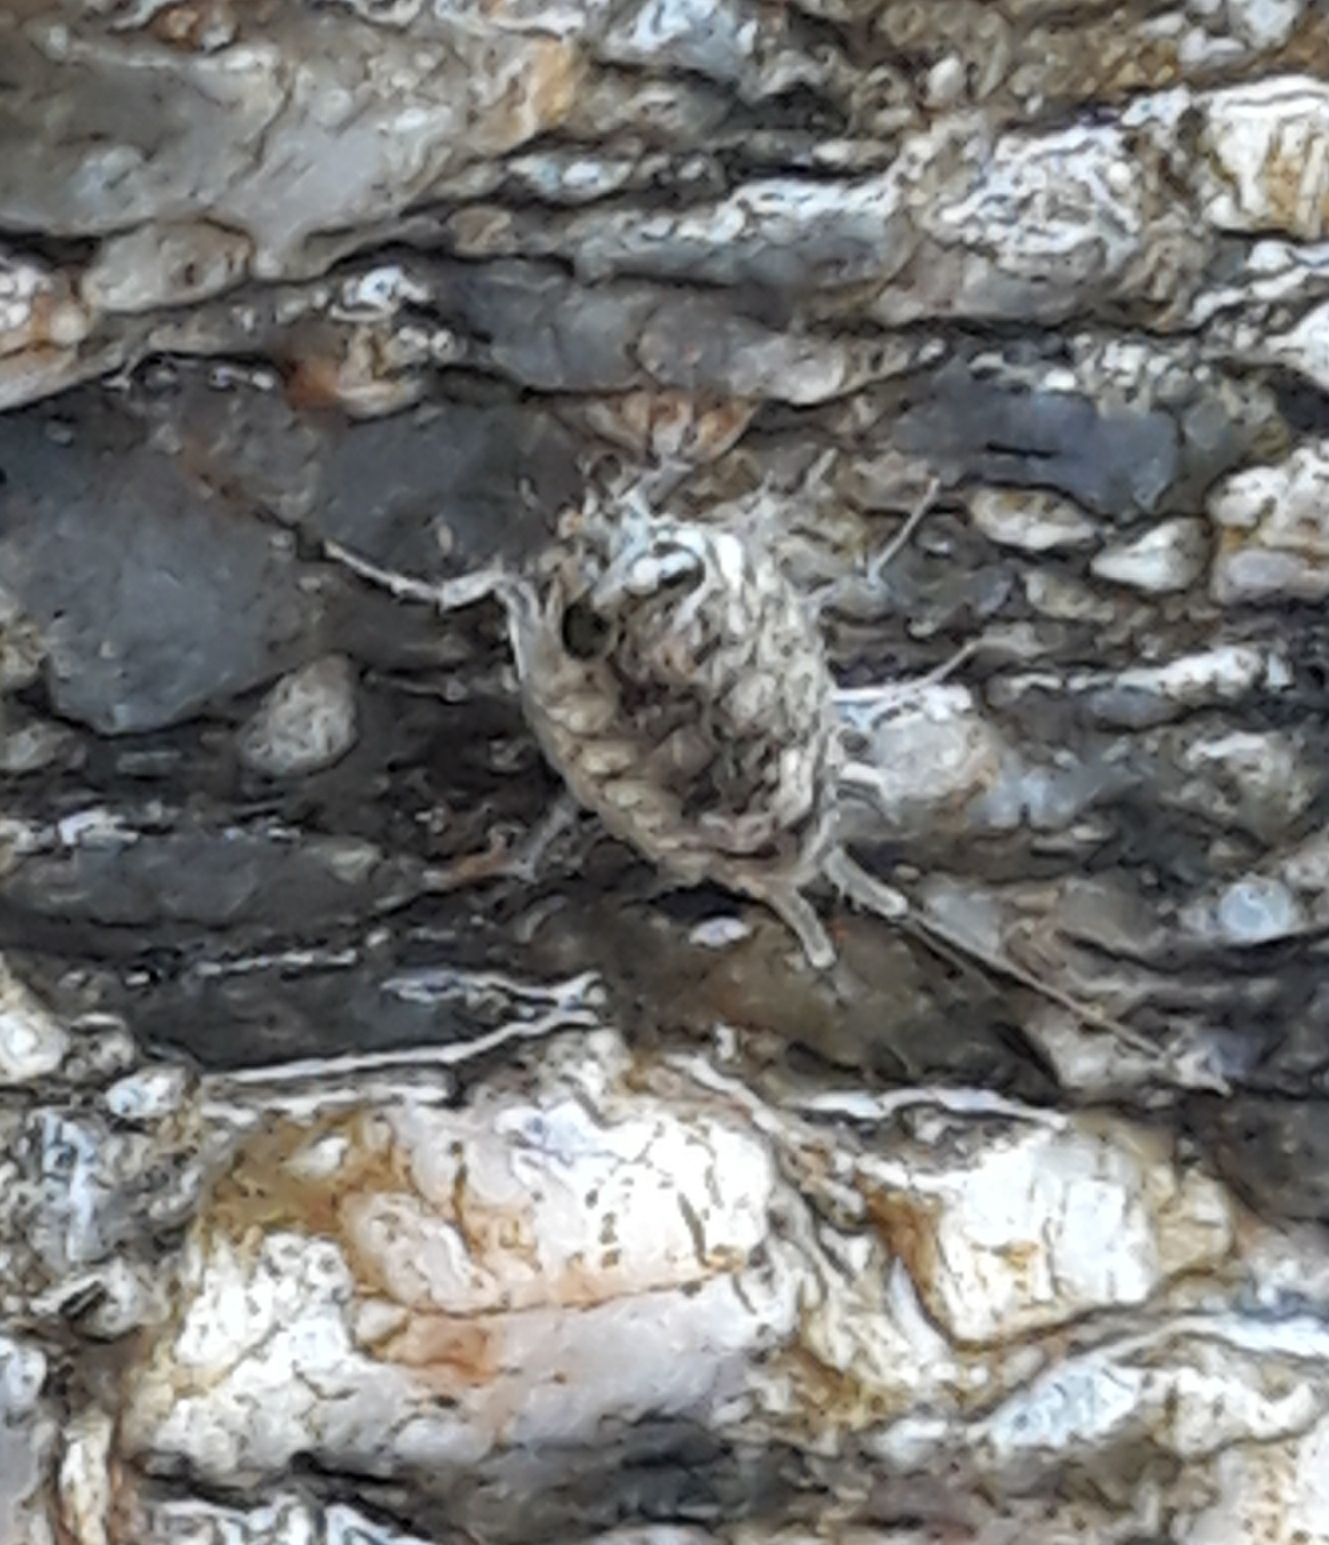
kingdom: Animalia
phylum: Arthropoda
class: Malacostraca
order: Isopoda
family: Ligiidae
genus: Ligia
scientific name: Ligia italica
